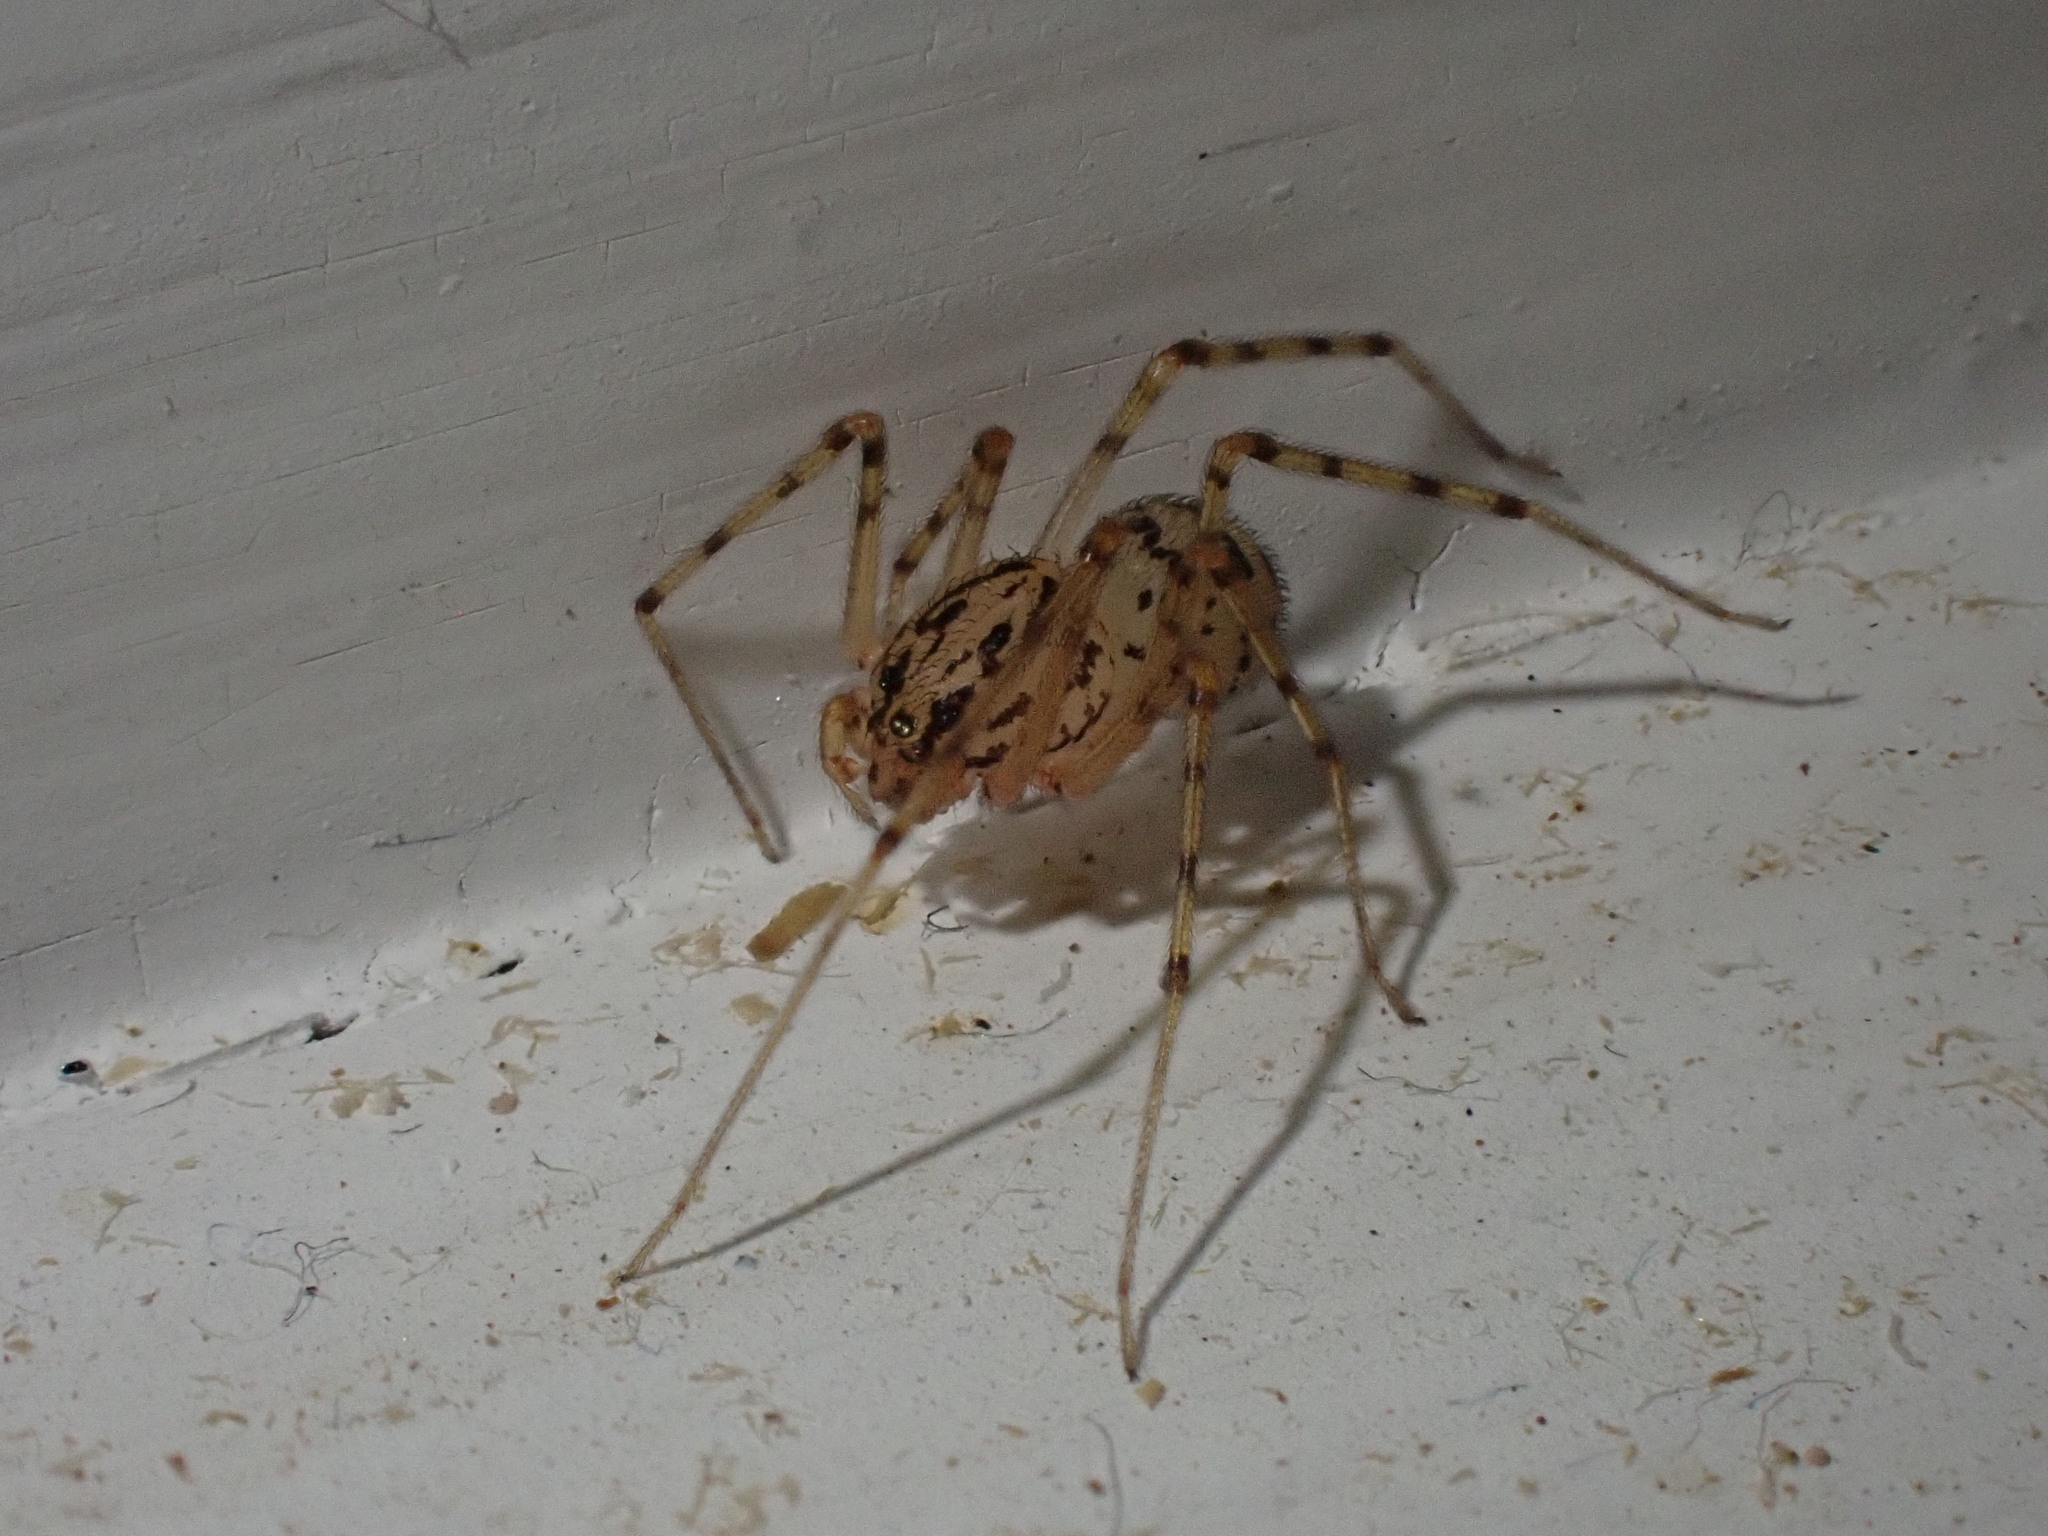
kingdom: Animalia
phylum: Arthropoda
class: Arachnida
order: Araneae
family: Scytodidae
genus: Scytodes
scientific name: Scytodes thoracica
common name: Spitting spider
